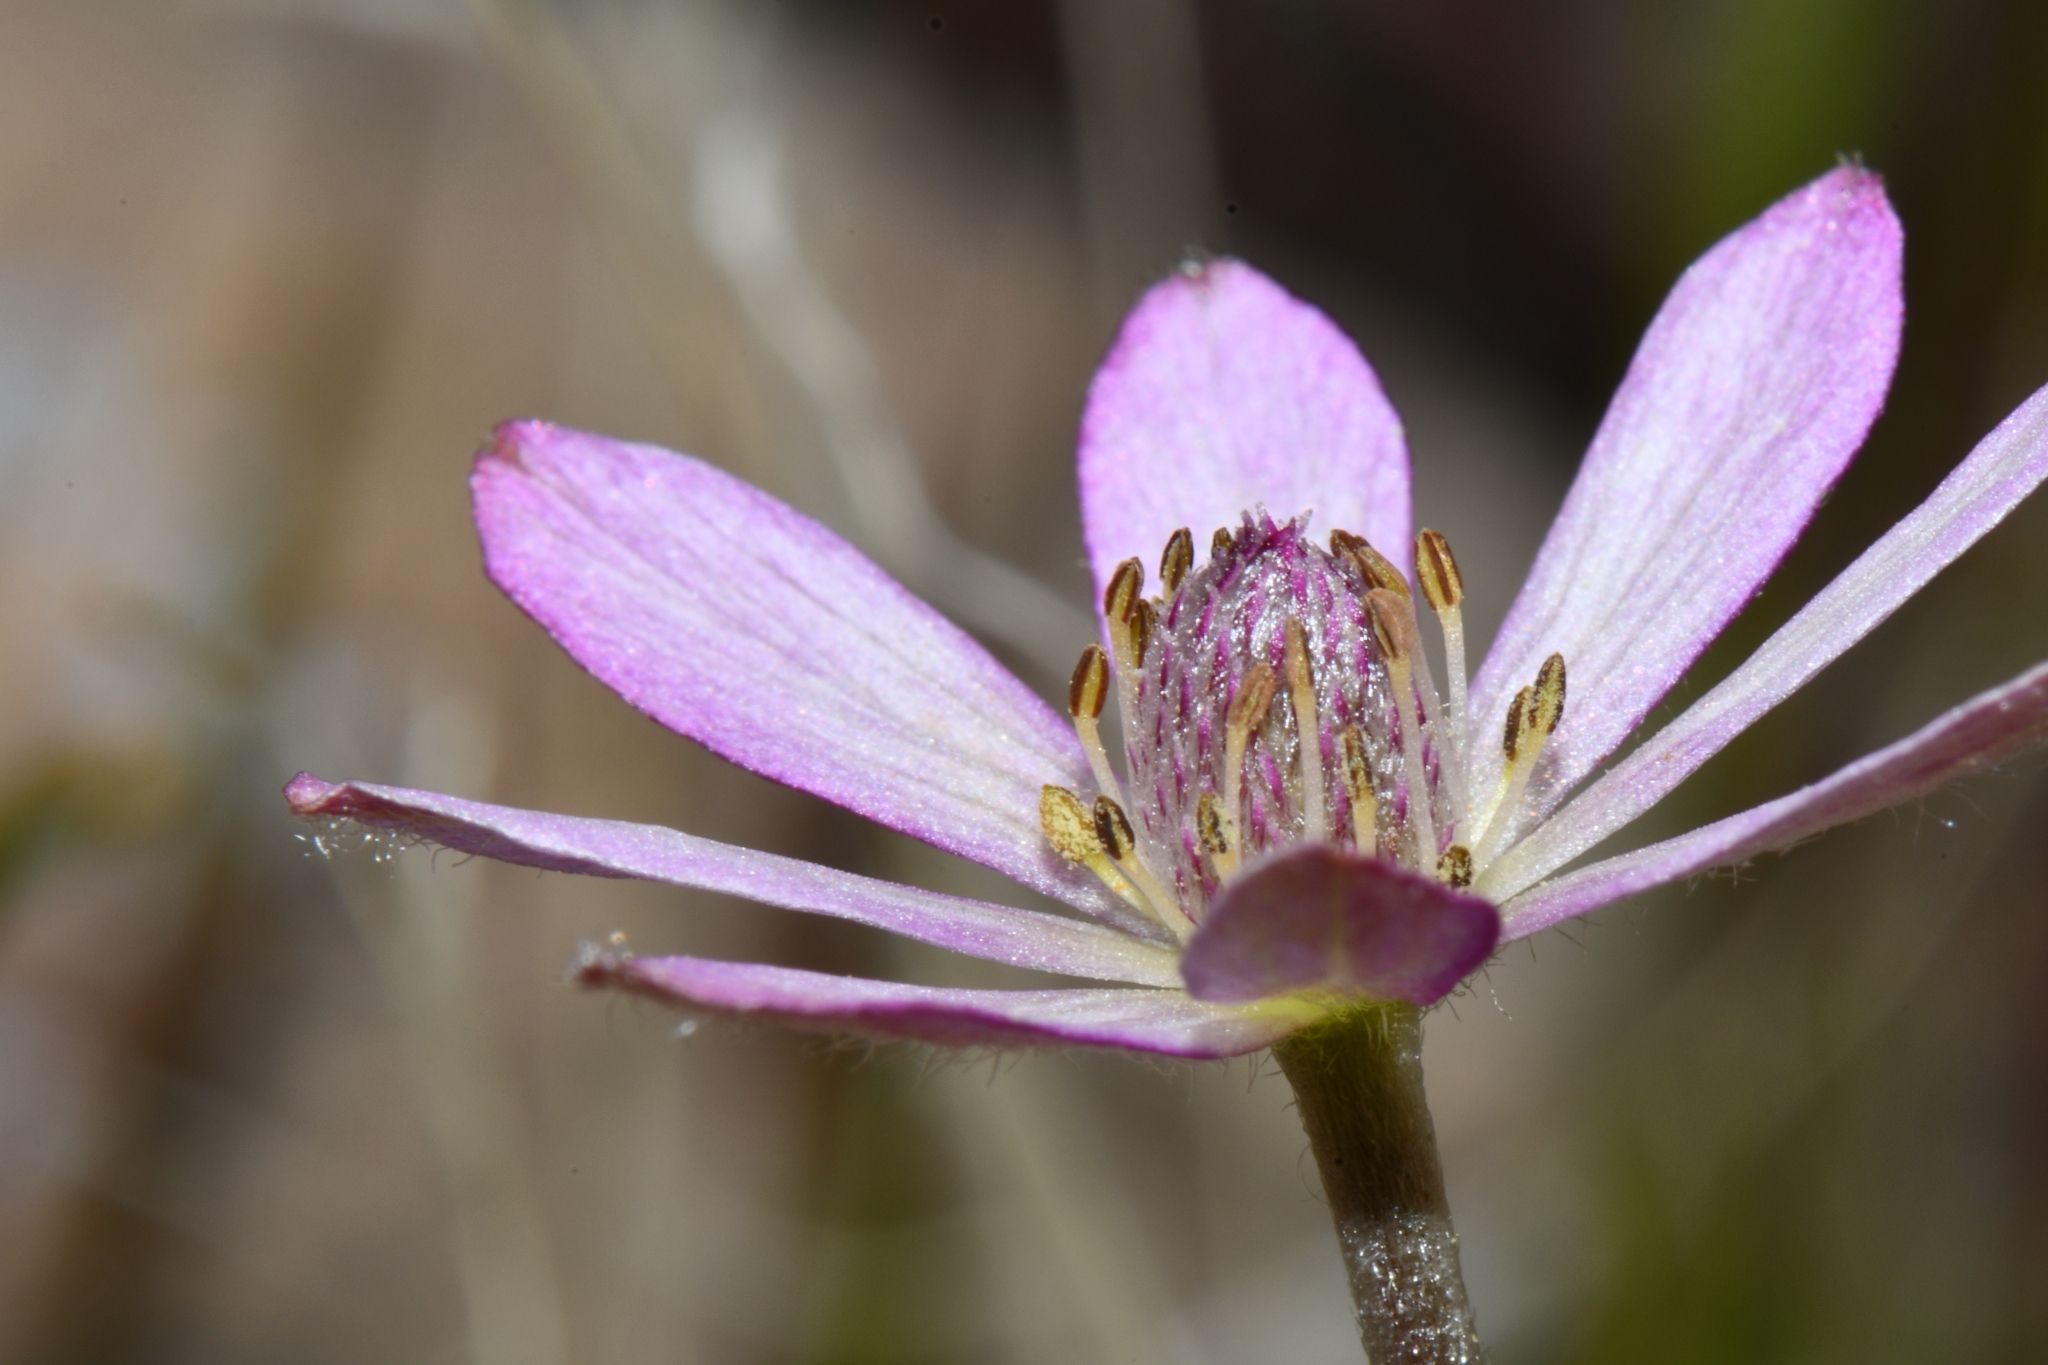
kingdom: Plantae
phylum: Tracheophyta
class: Magnoliopsida
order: Ranunculales
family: Ranunculaceae
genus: Anemone
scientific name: Anemone tuberosa
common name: Desert anemone
